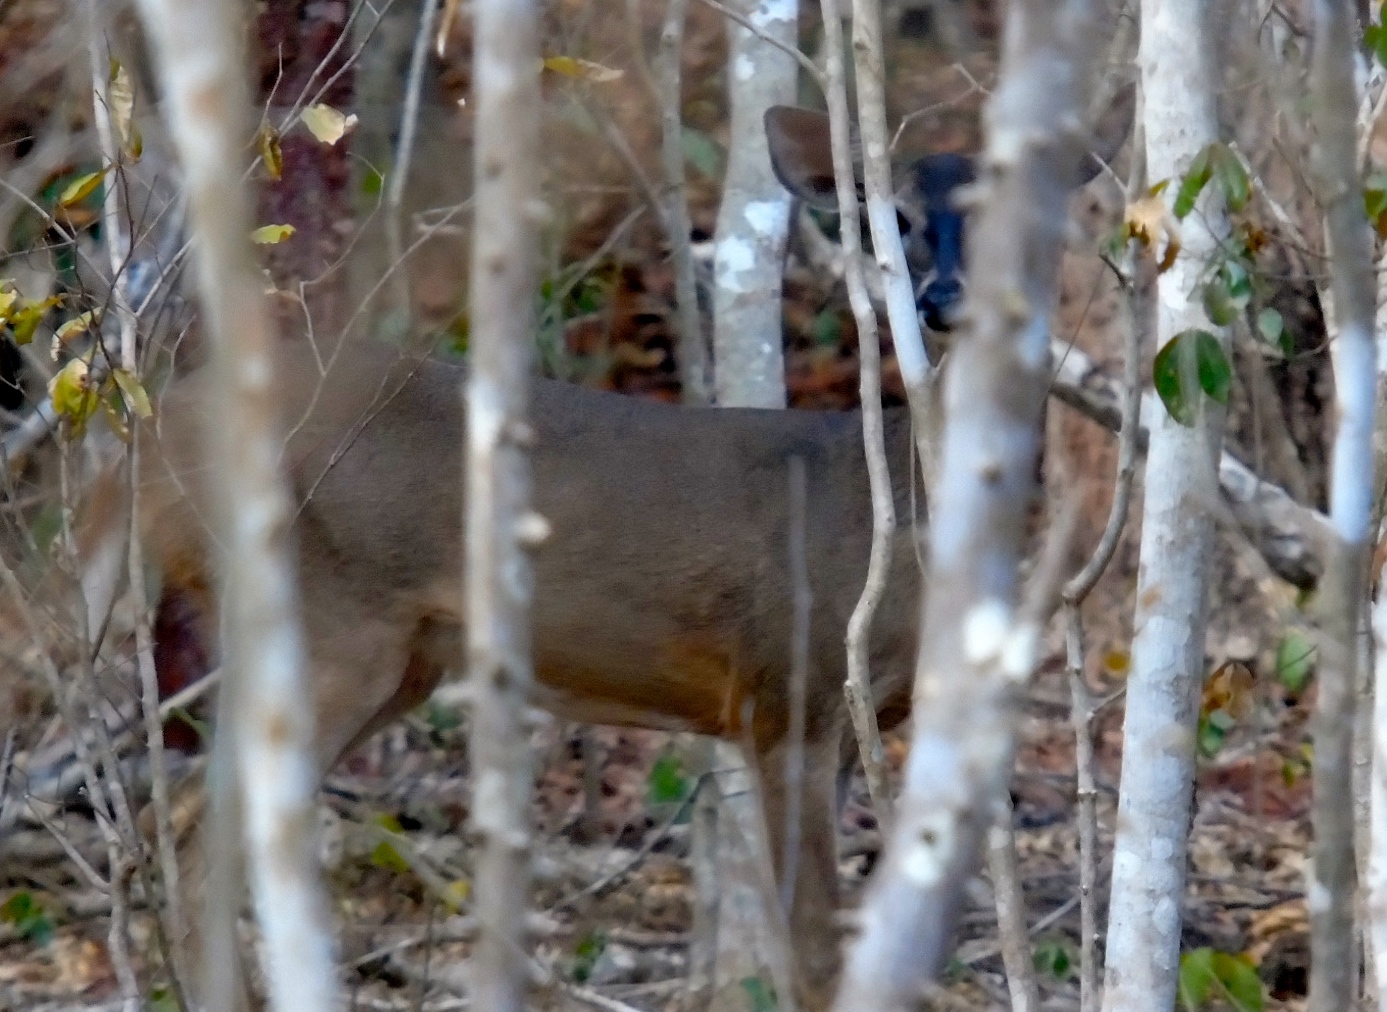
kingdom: Animalia
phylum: Chordata
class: Mammalia
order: Artiodactyla
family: Cervidae
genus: Odocoileus
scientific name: Odocoileus virginianus
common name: White-tailed deer
